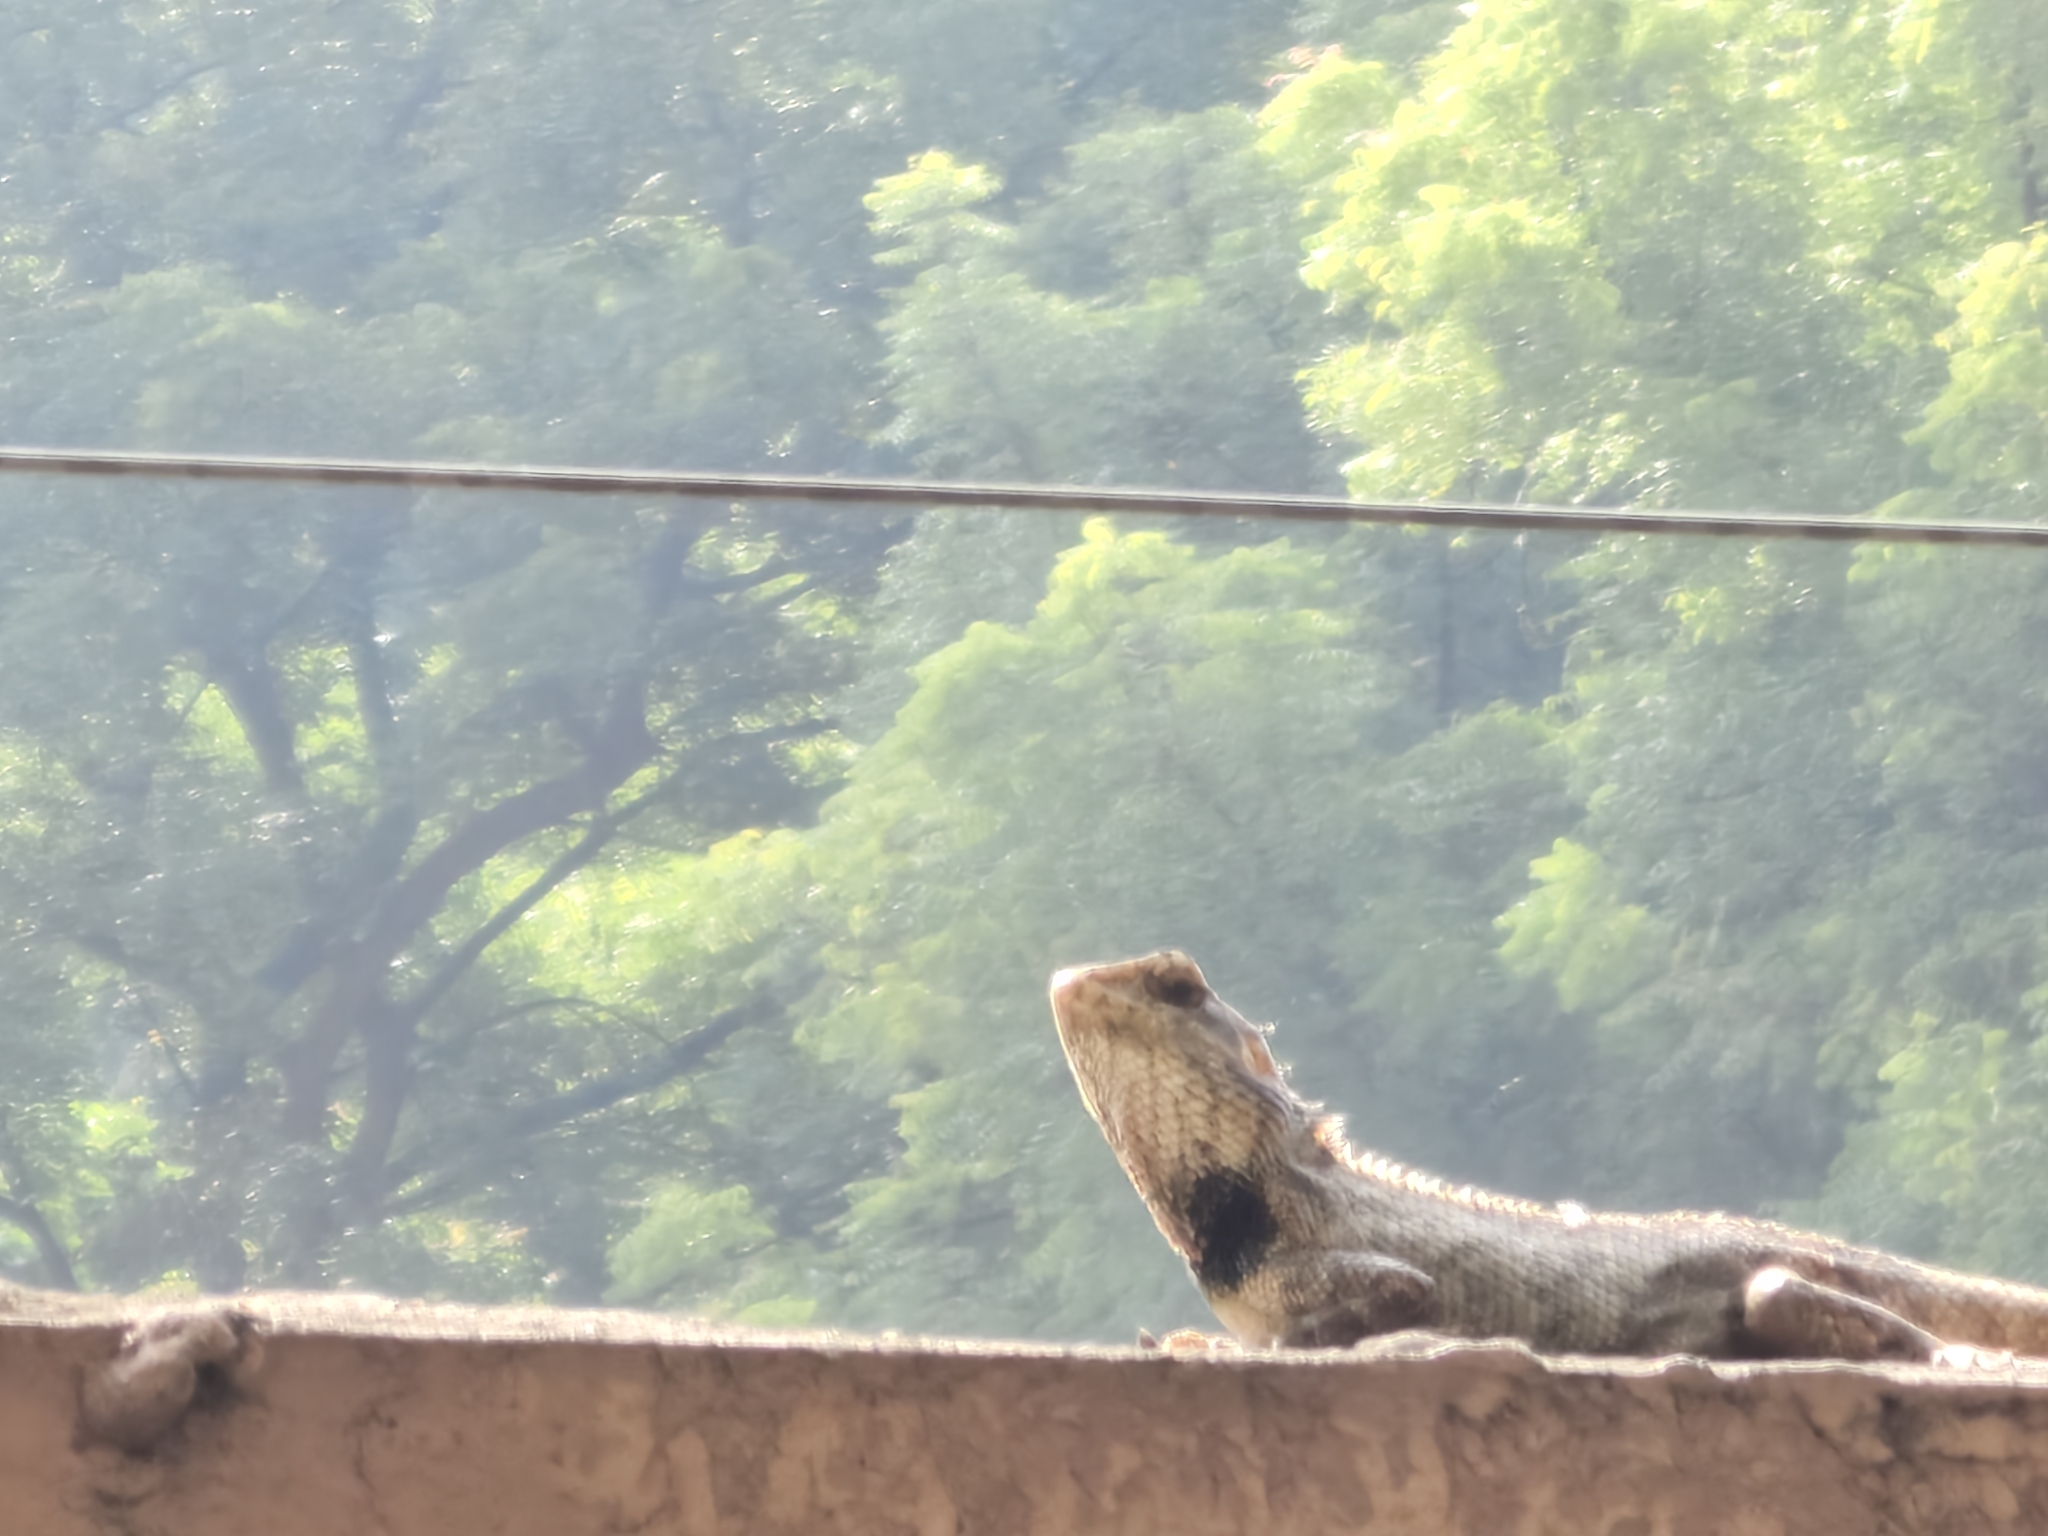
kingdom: Animalia
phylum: Chordata
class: Squamata
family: Agamidae
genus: Calotes
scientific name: Calotes versicolor
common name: Oriental garden lizard
